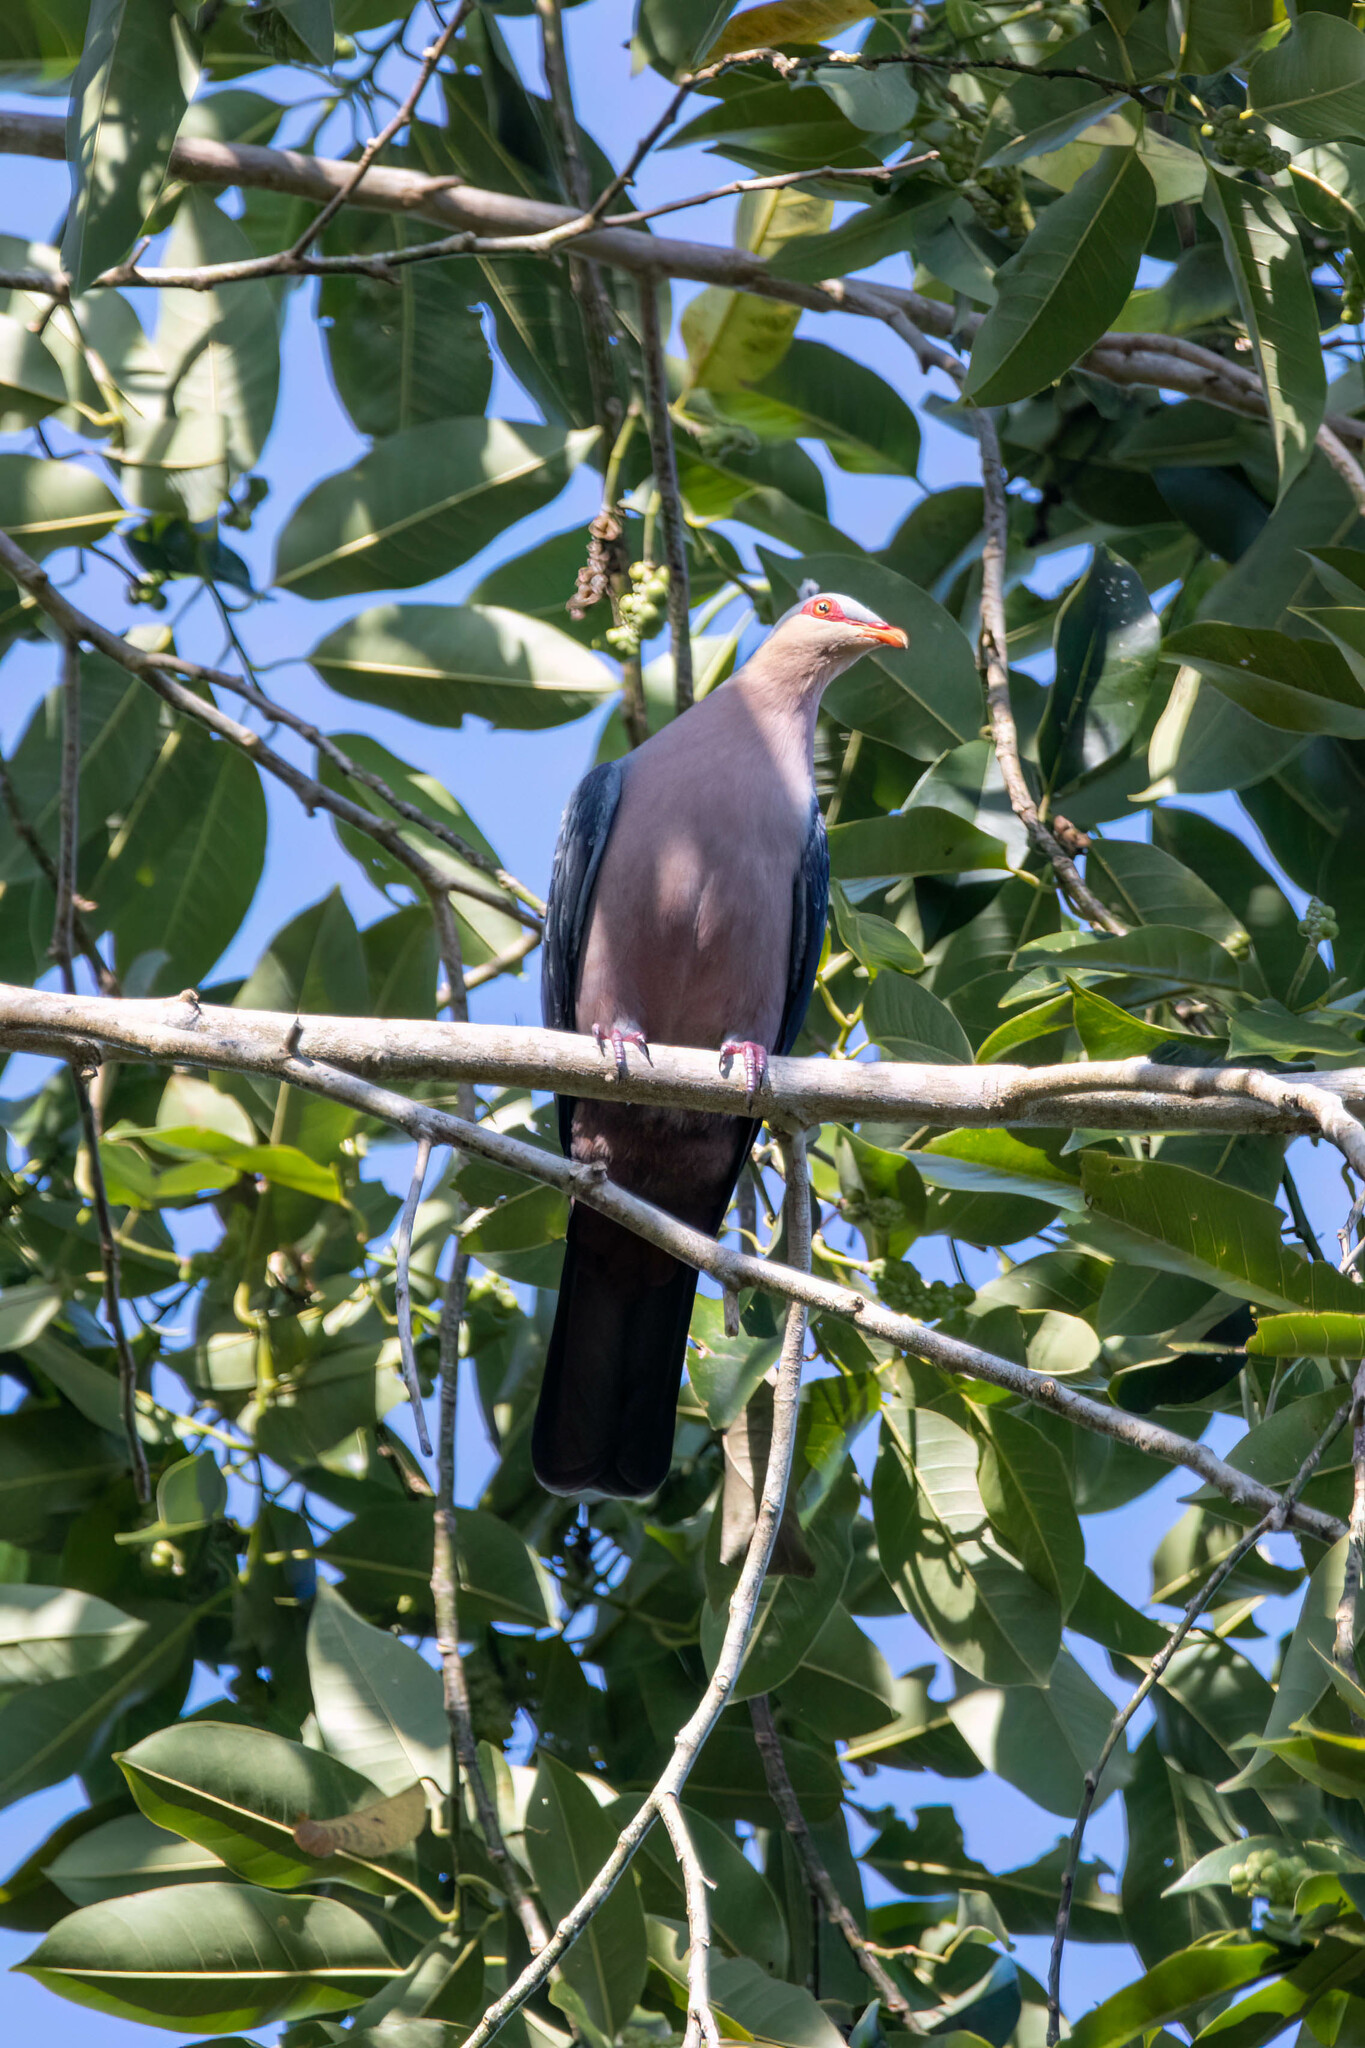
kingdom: Animalia
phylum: Chordata
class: Aves
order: Columbiformes
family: Columbidae
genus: Gymnophaps
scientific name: Gymnophaps stalkeri
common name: Seram mountain pigeon
